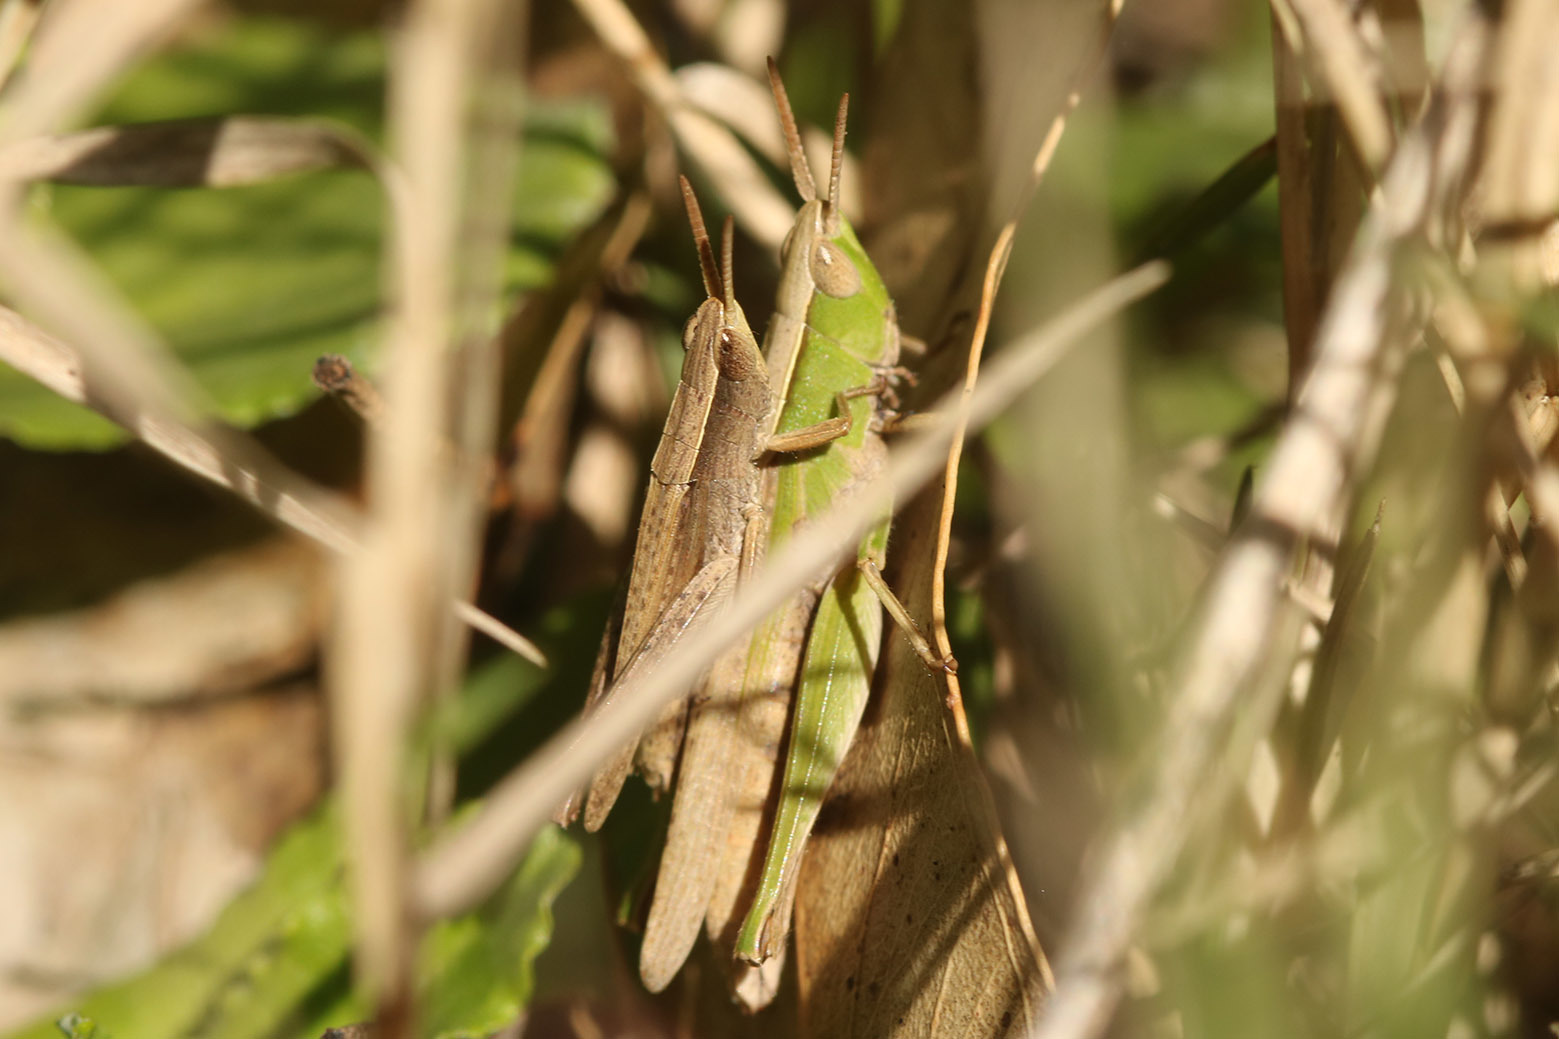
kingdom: Animalia
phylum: Arthropoda
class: Insecta
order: Orthoptera
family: Acrididae
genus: Laplatacris
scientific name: Laplatacris dispar
